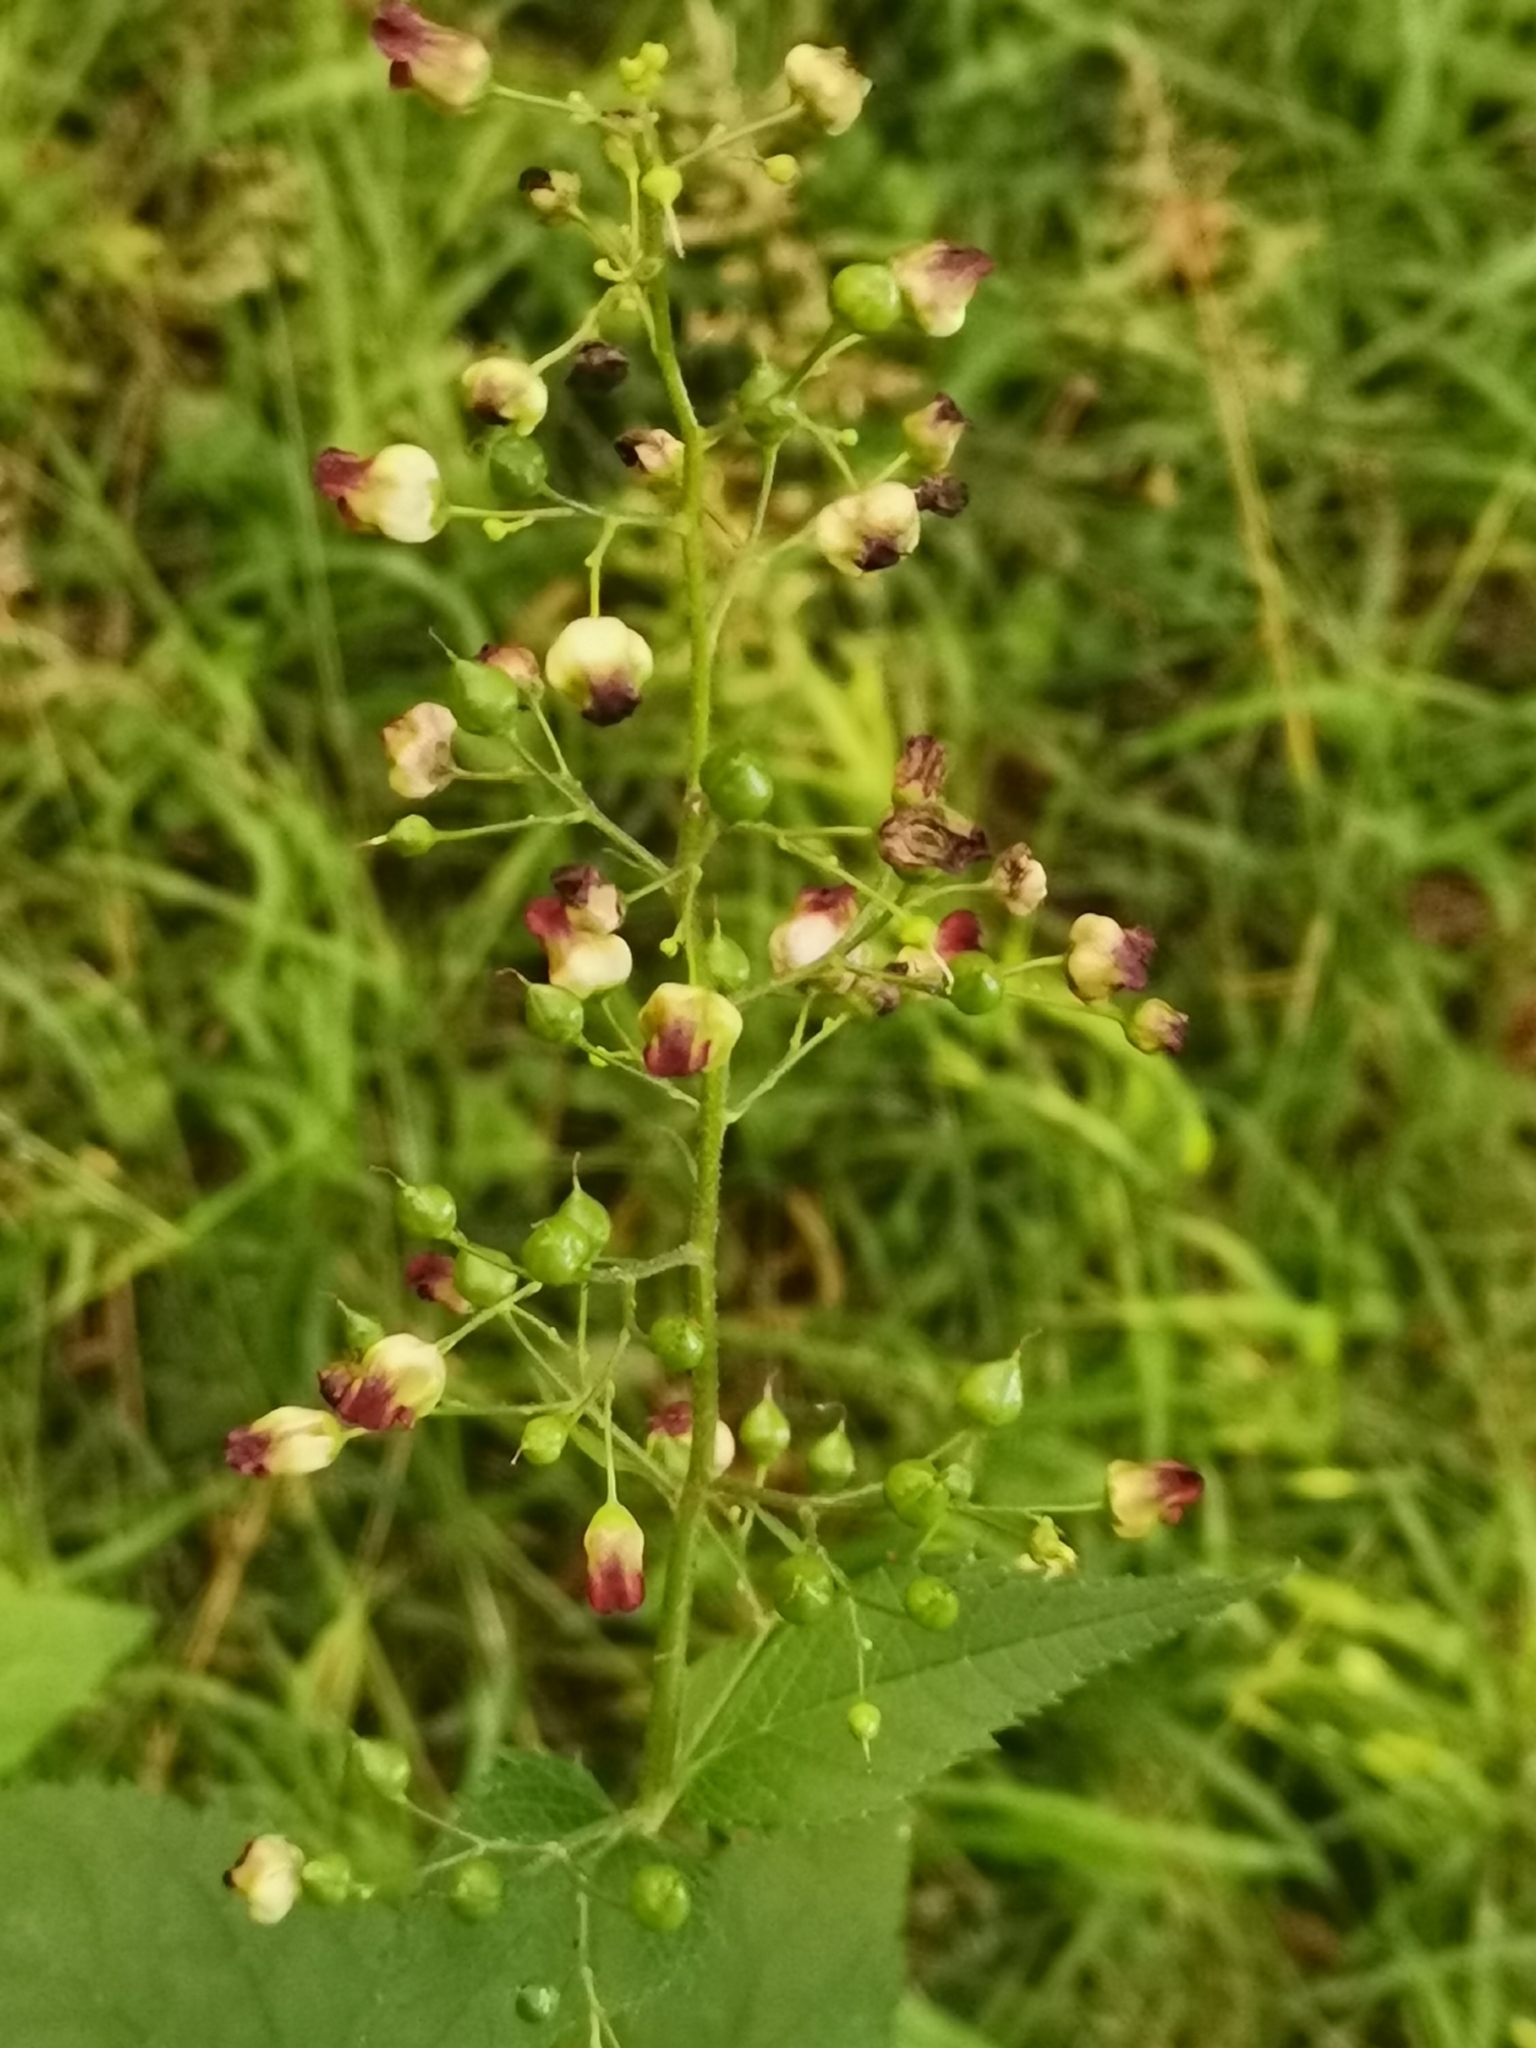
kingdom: Plantae
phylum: Tracheophyta
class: Magnoliopsida
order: Lamiales
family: Scrophulariaceae
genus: Scrophularia
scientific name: Scrophularia nodosa
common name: Common figwort
